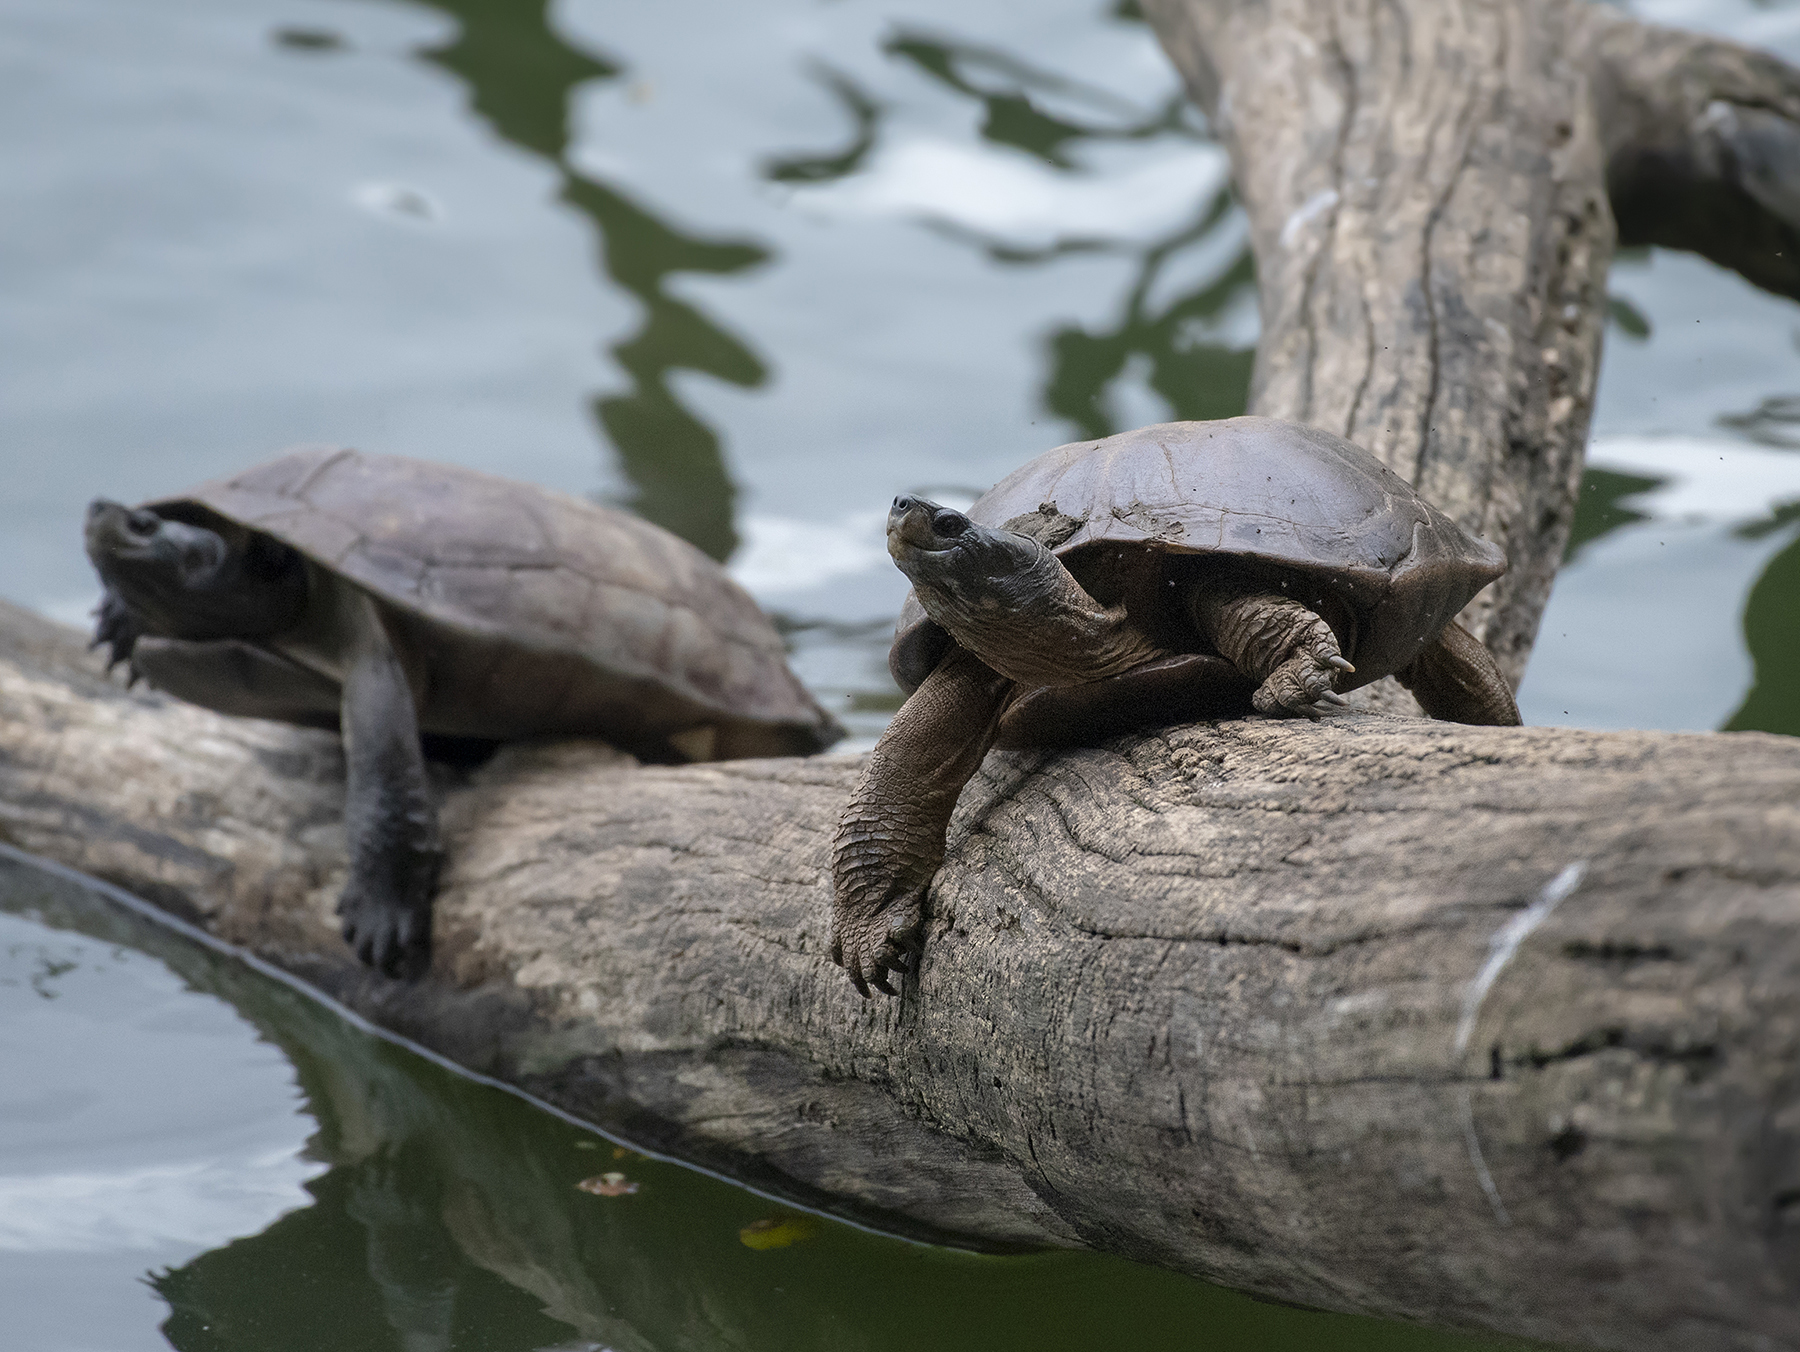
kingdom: Animalia
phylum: Chordata
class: Testudines
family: Geoemydidae
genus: Melanochelys
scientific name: Melanochelys trijuga
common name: Indian black turtle
